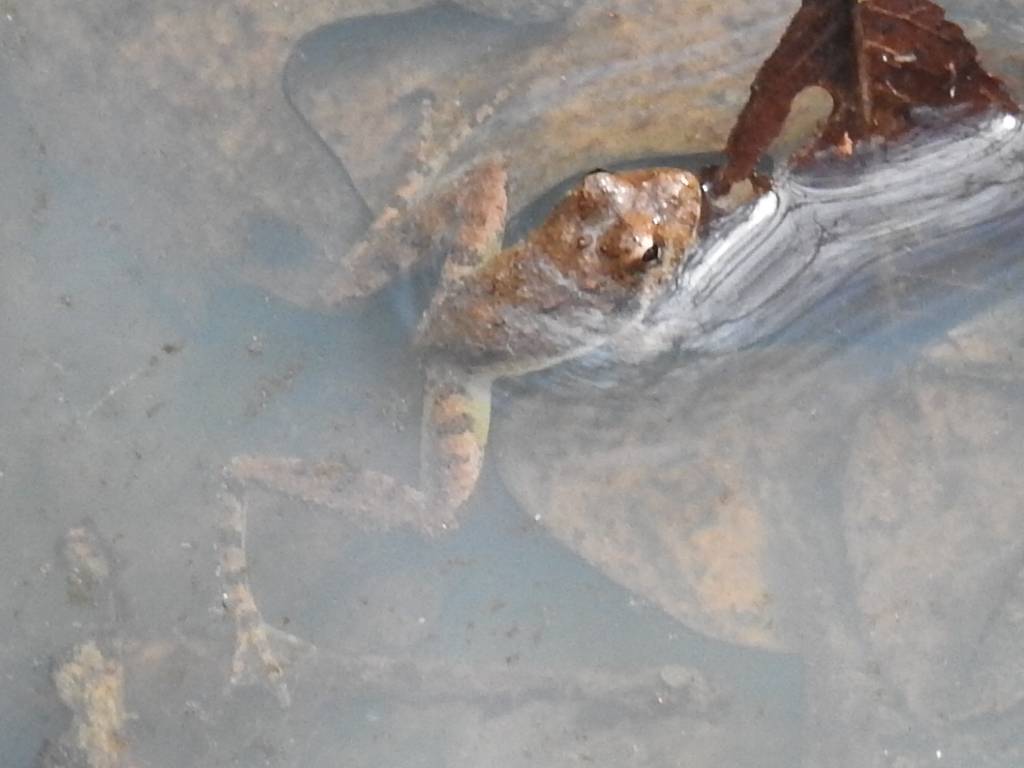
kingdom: Animalia
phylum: Chordata
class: Amphibia
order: Anura
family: Hylidae
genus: Acris
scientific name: Acris blanchardi
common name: Blanchard's cricket frog
